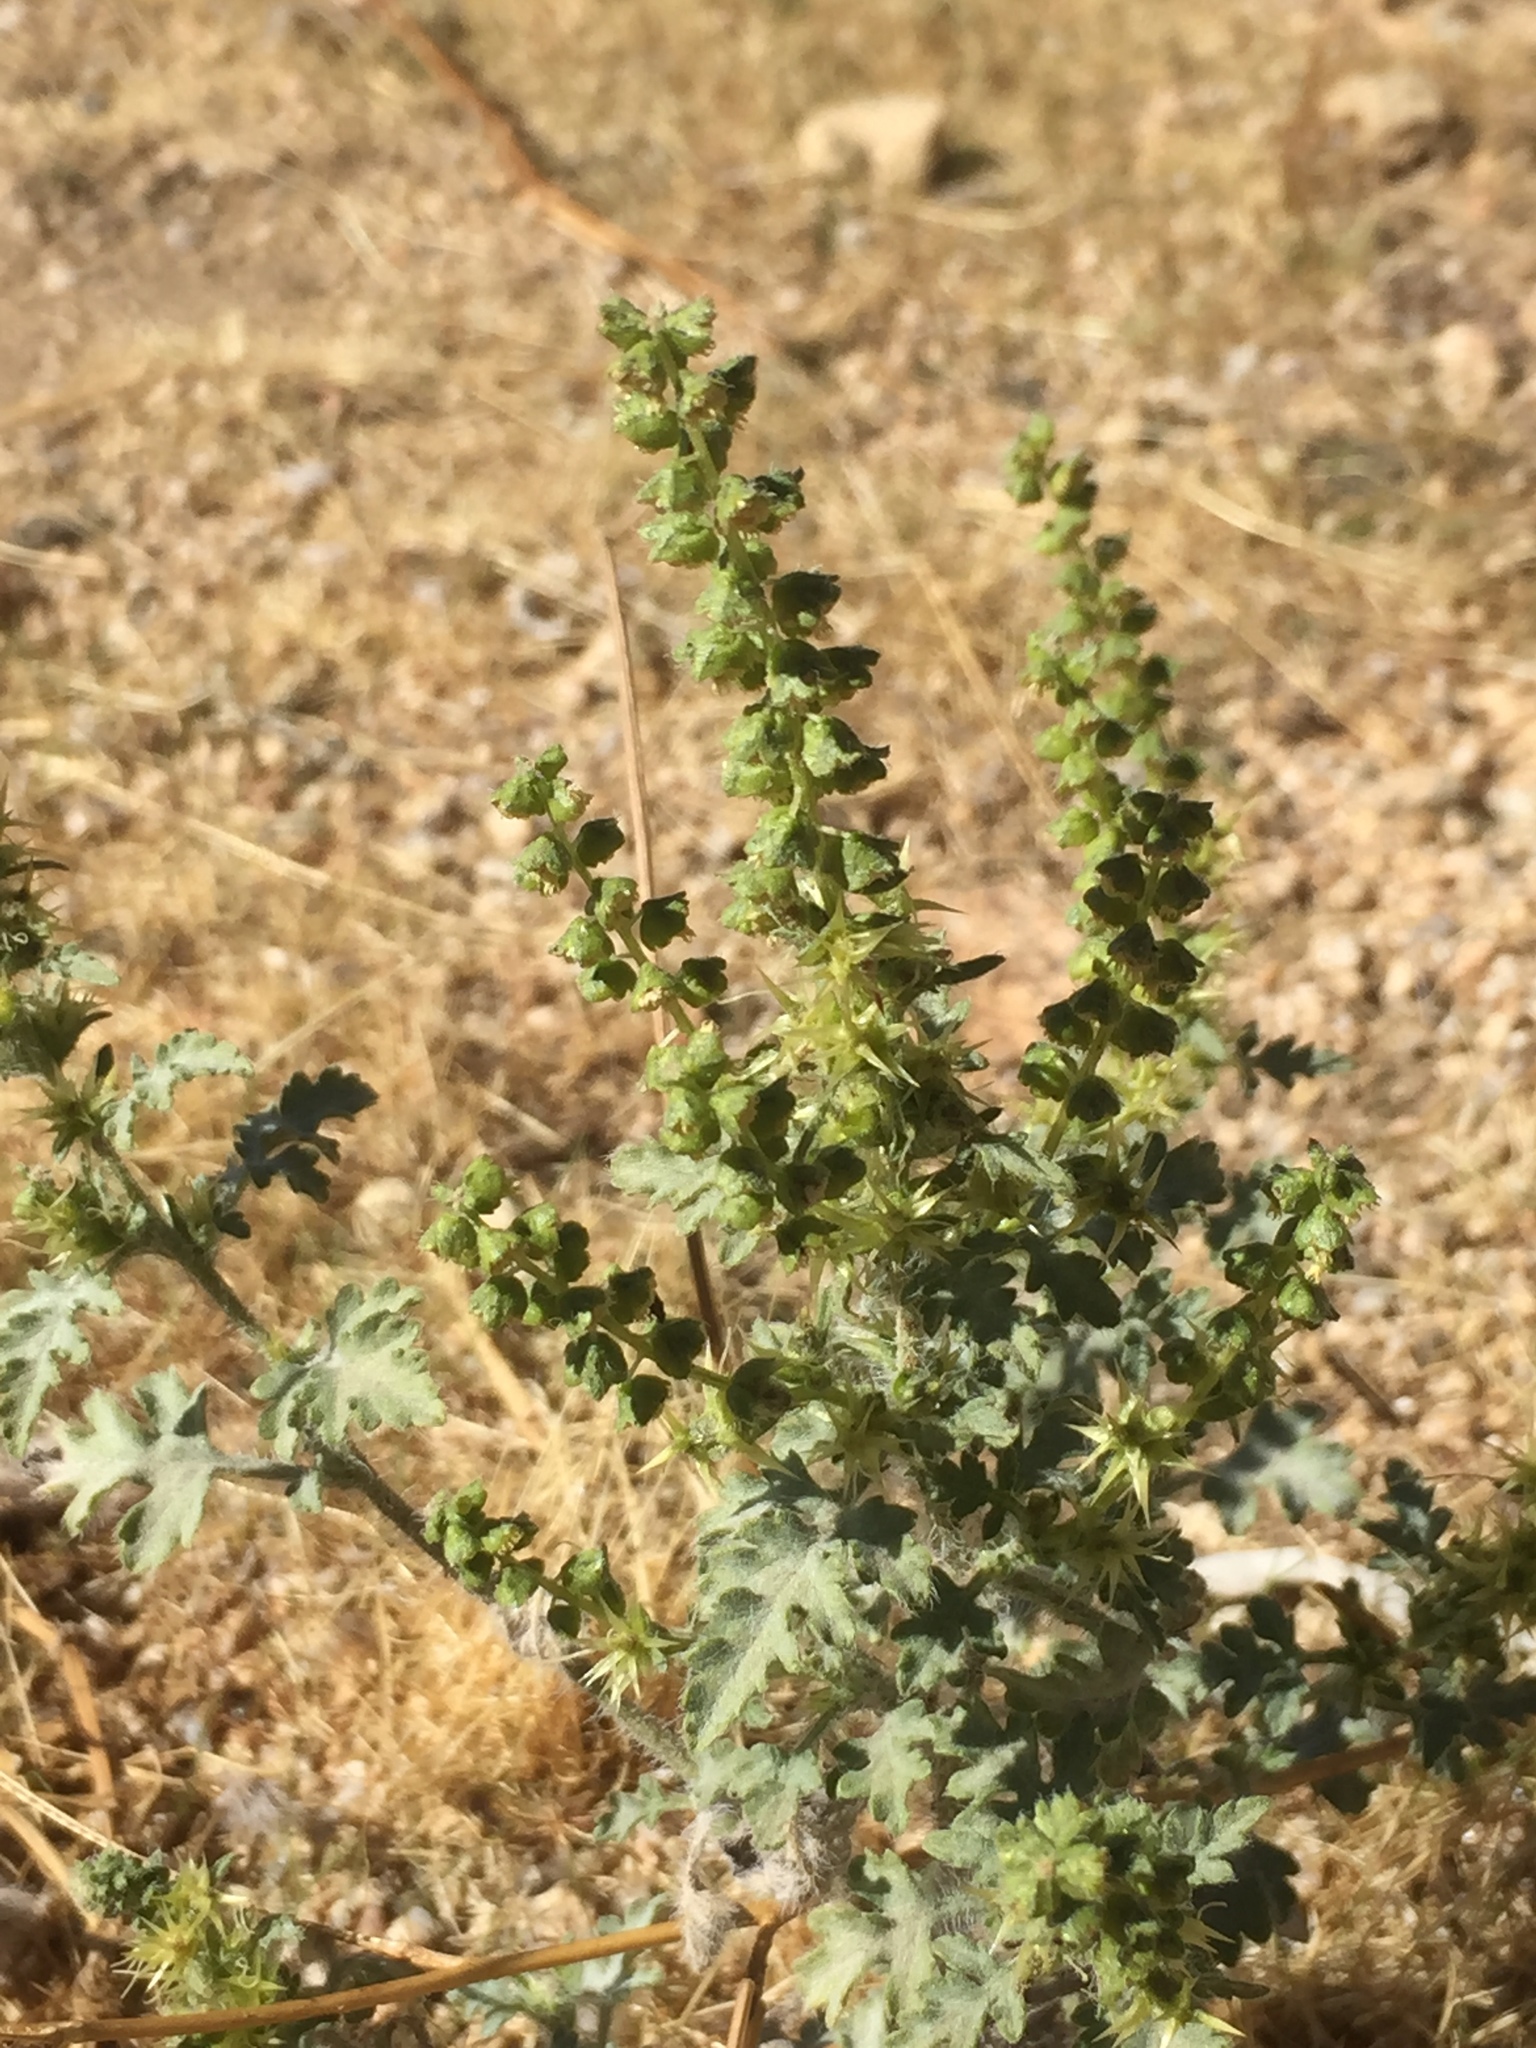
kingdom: Plantae
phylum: Tracheophyta
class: Magnoliopsida
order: Asterales
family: Asteraceae
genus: Ambrosia
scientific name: Ambrosia acanthicarpa
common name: Hooker's bur ragweed
